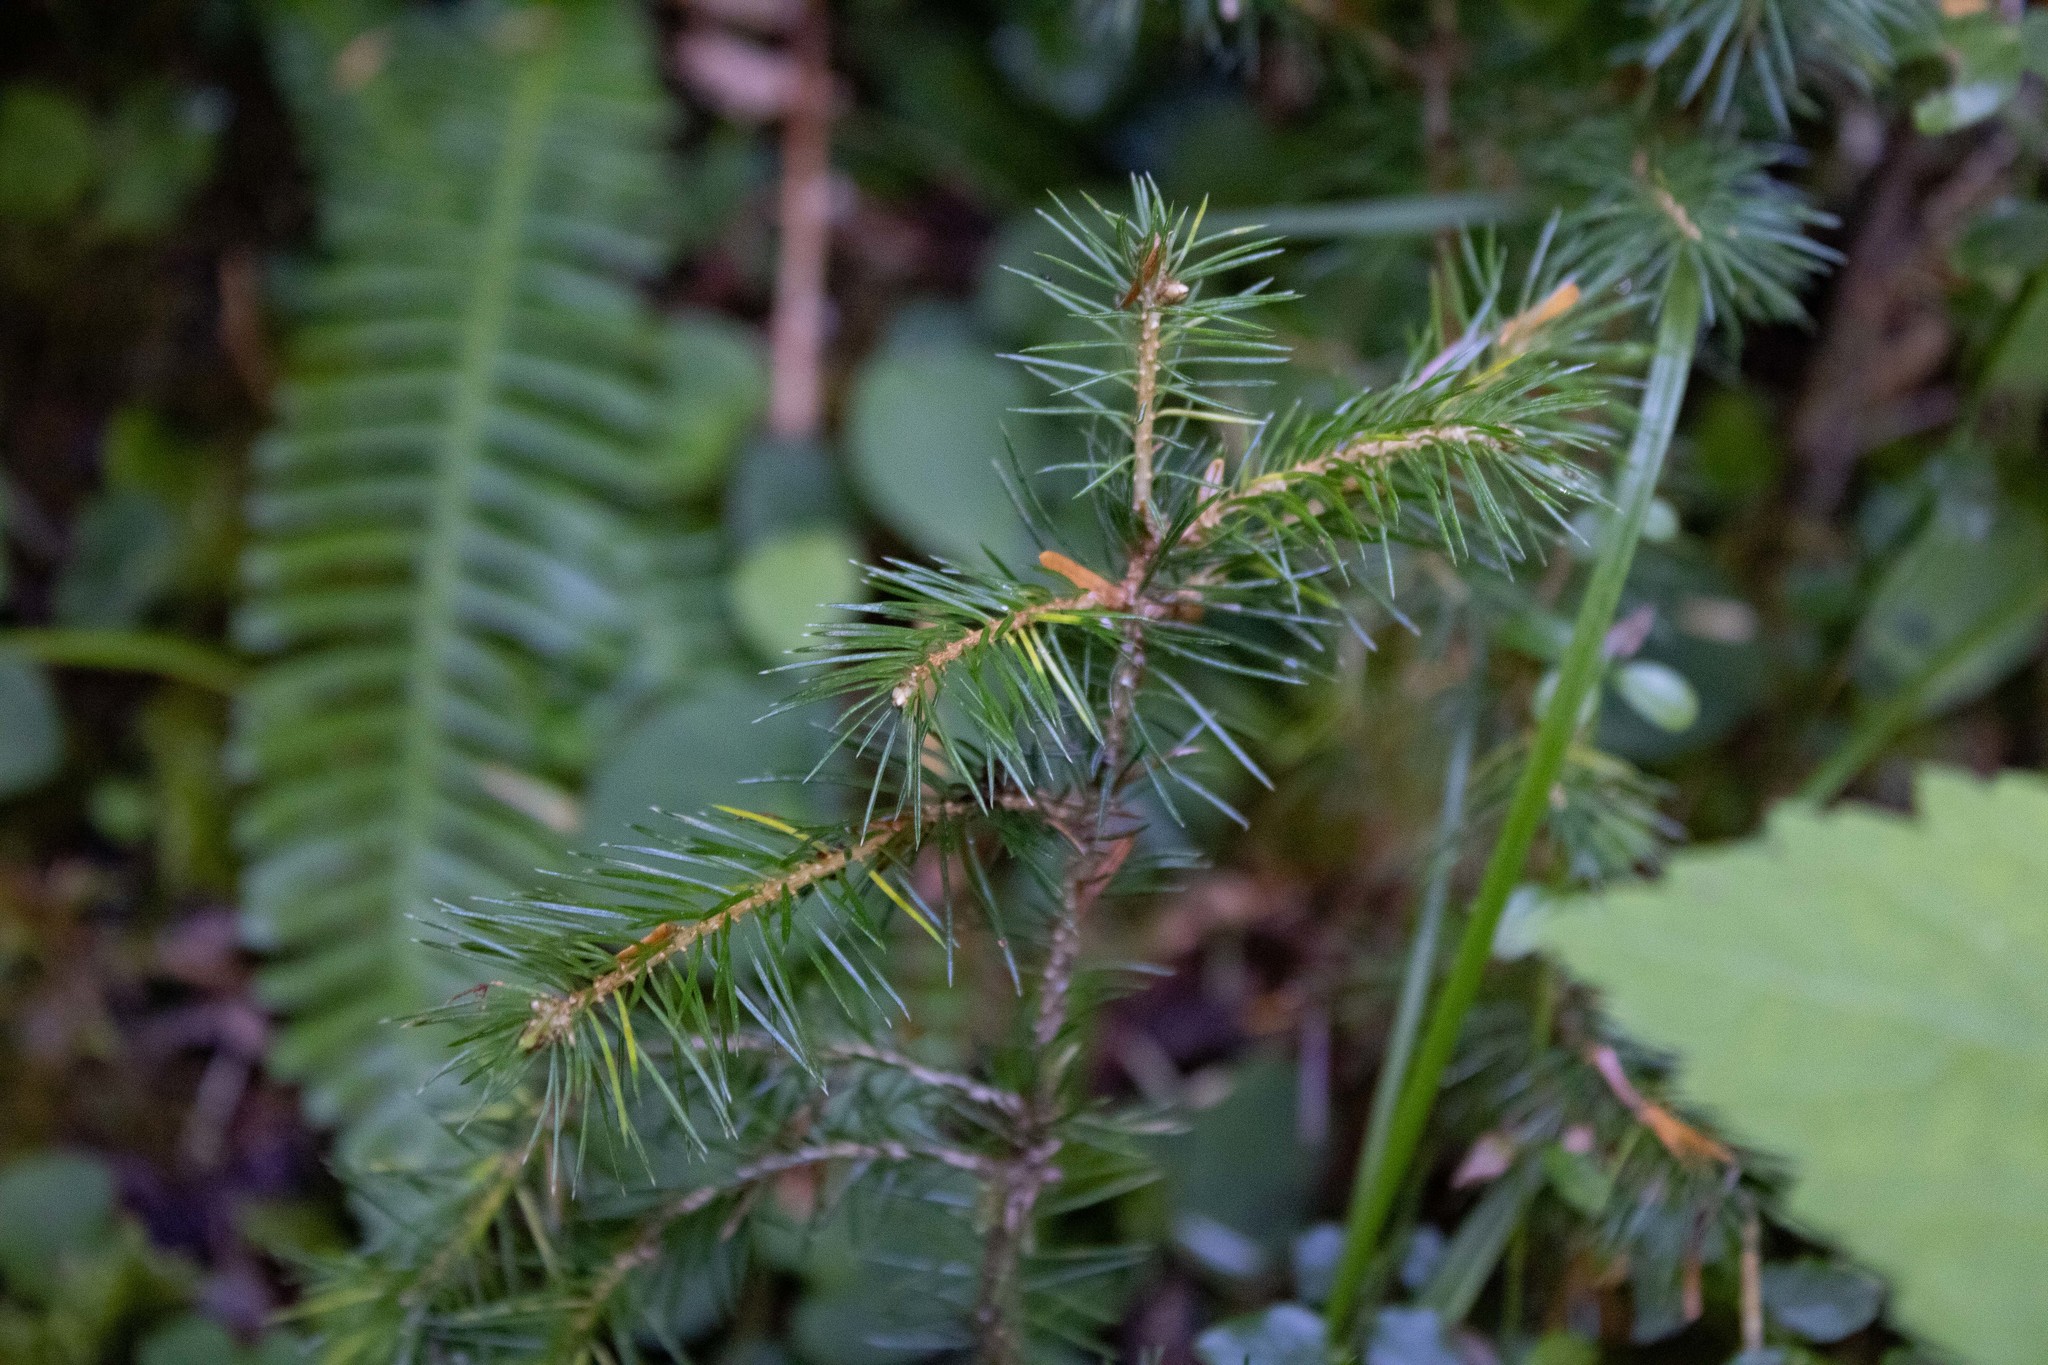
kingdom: Plantae
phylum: Tracheophyta
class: Pinopsida
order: Pinales
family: Pinaceae
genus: Picea
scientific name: Picea sitchensis
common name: Sitka spruce
